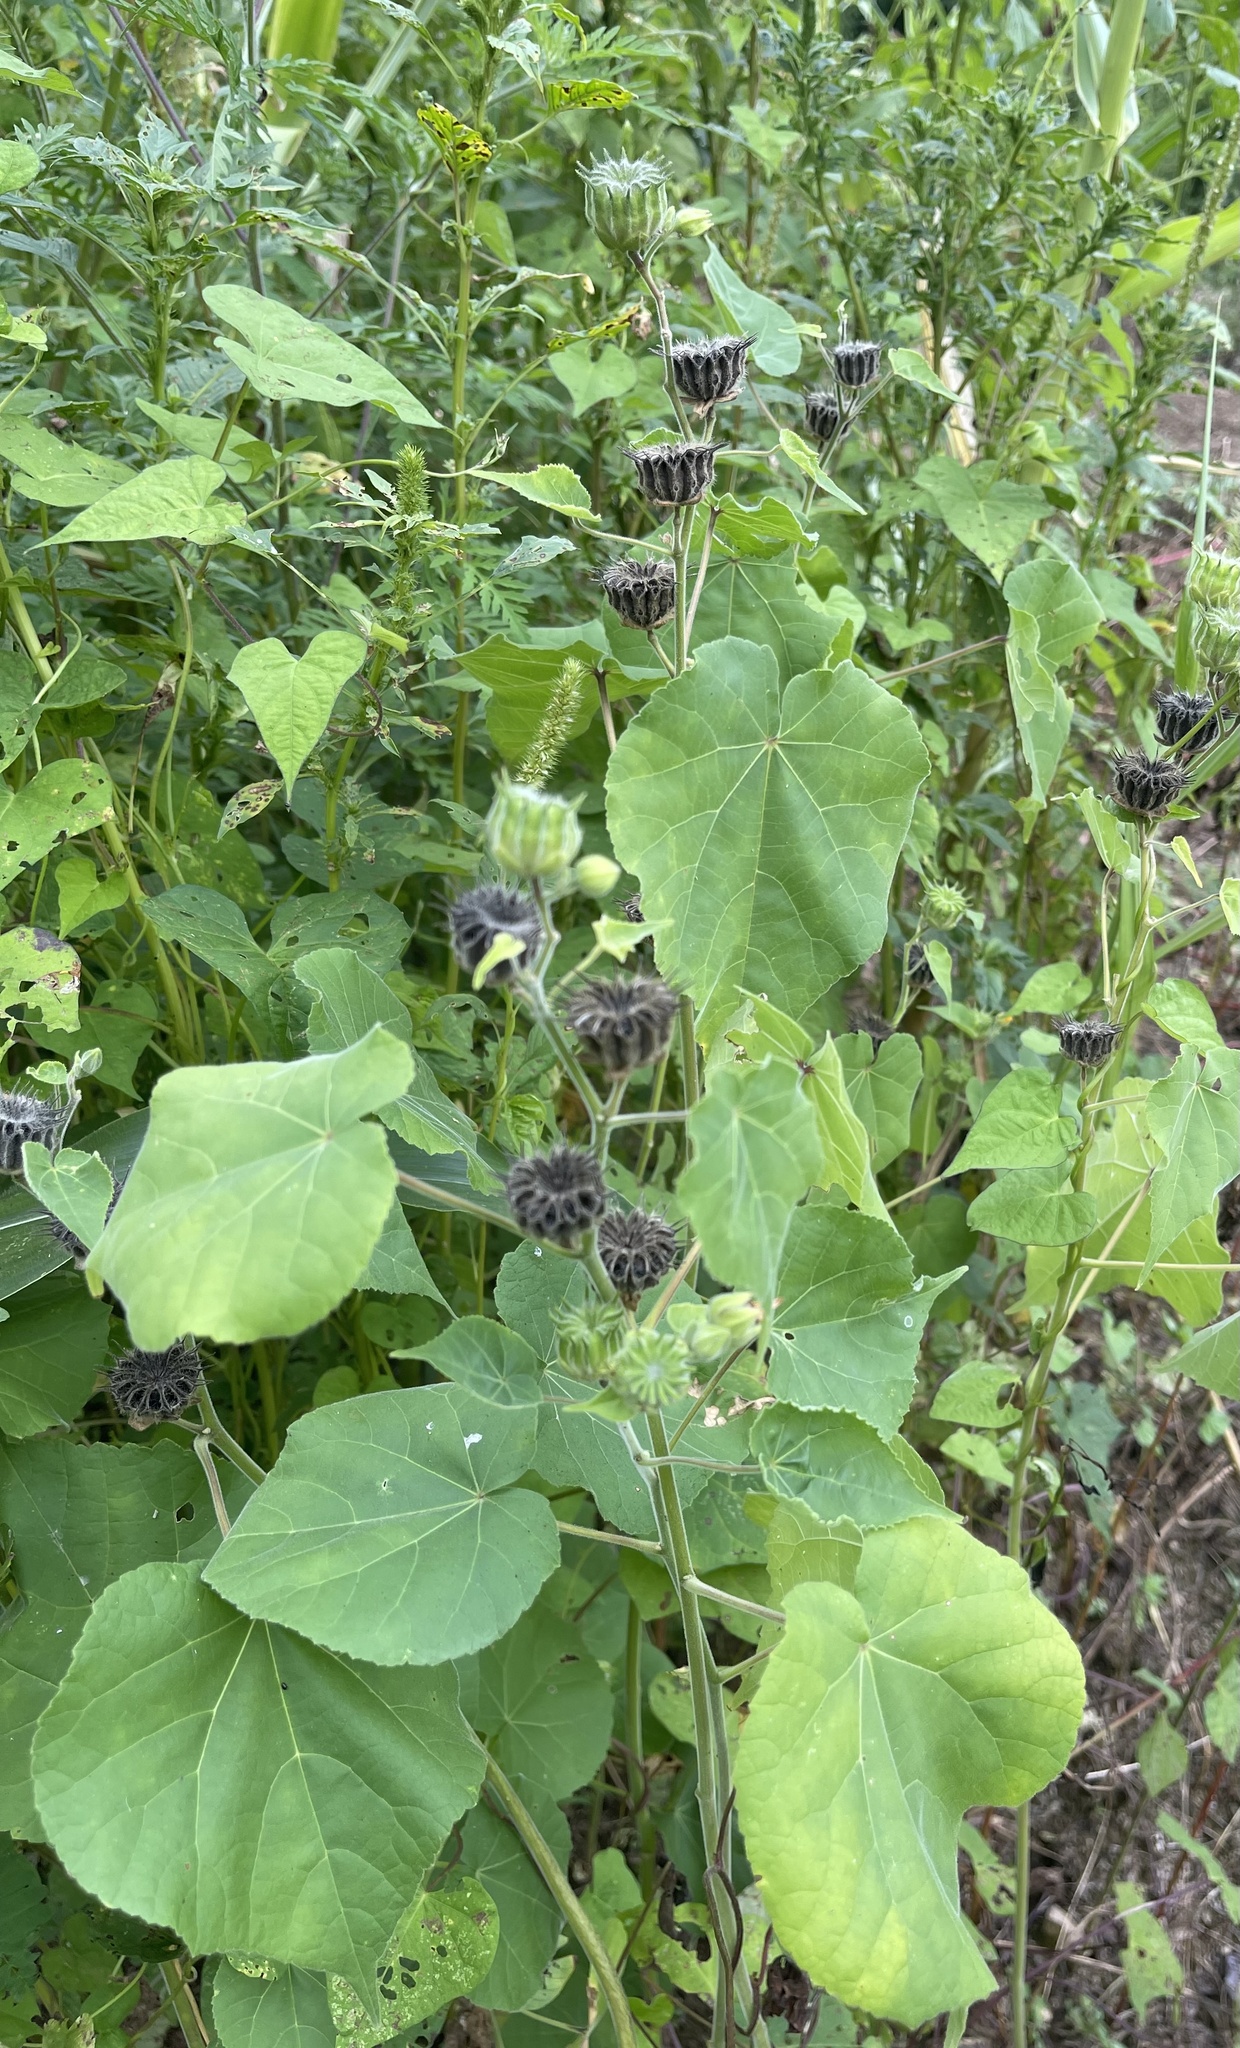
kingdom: Plantae
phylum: Tracheophyta
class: Magnoliopsida
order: Malvales
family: Malvaceae
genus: Abutilon
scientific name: Abutilon theophrasti
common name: Velvetleaf
